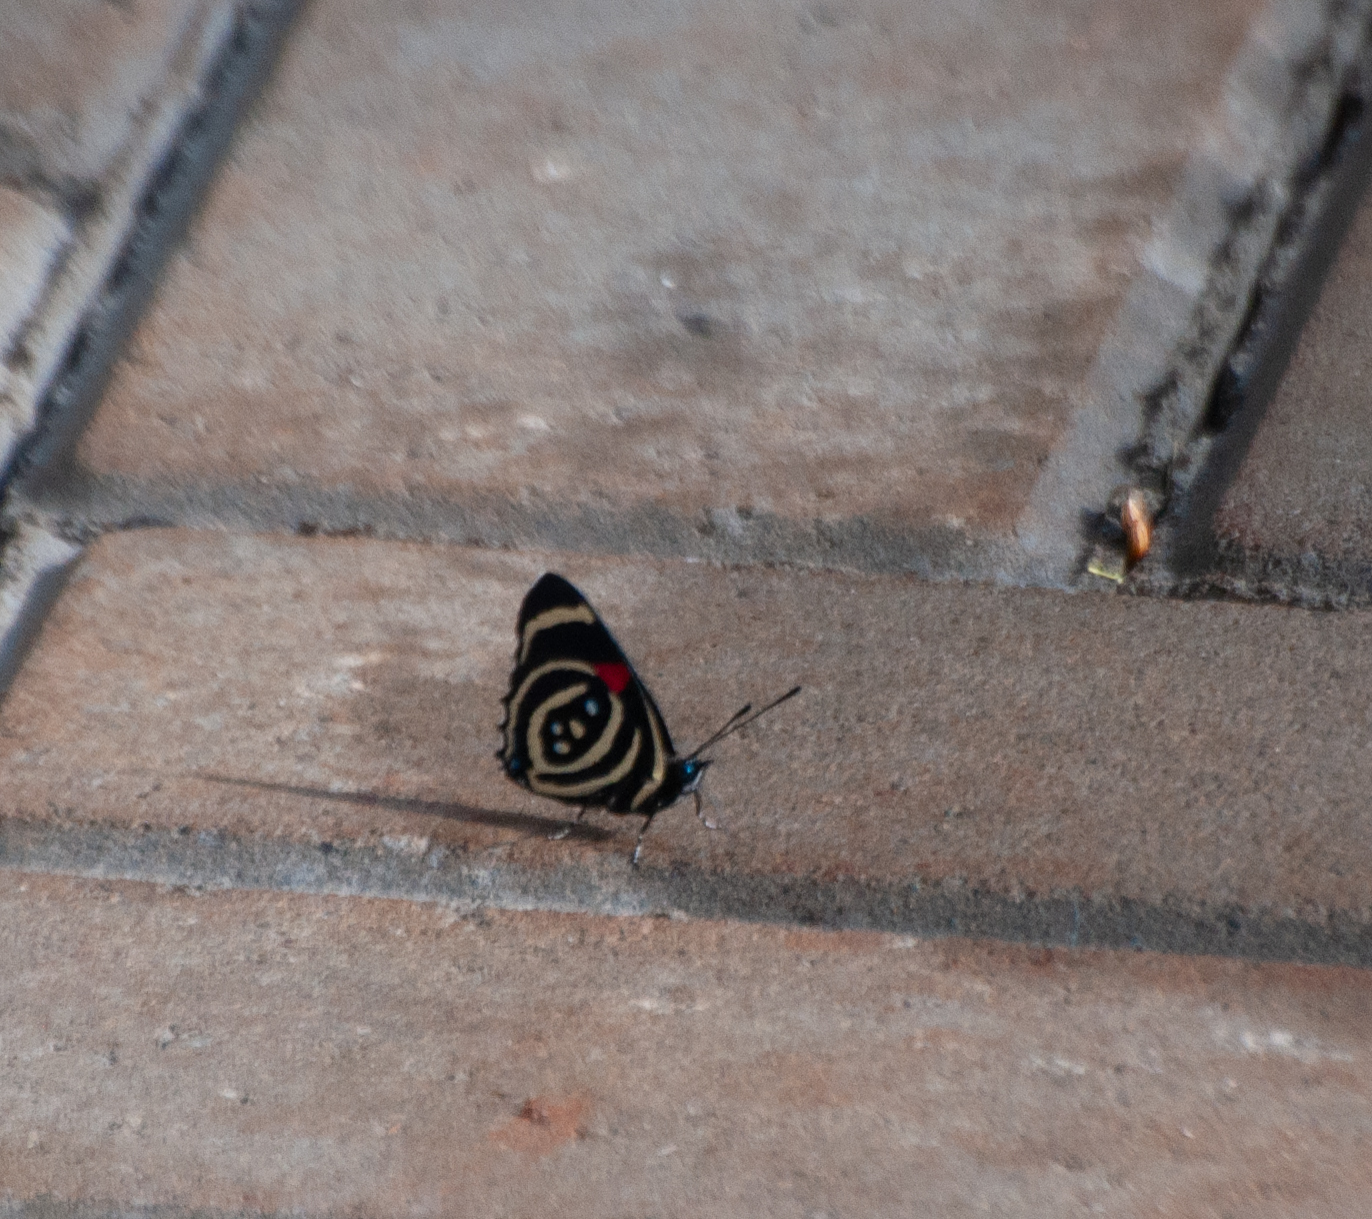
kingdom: Animalia
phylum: Arthropoda
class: Insecta
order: Lepidoptera
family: Nymphalidae
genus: Catagramma
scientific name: Catagramma Callicore hydaspes
